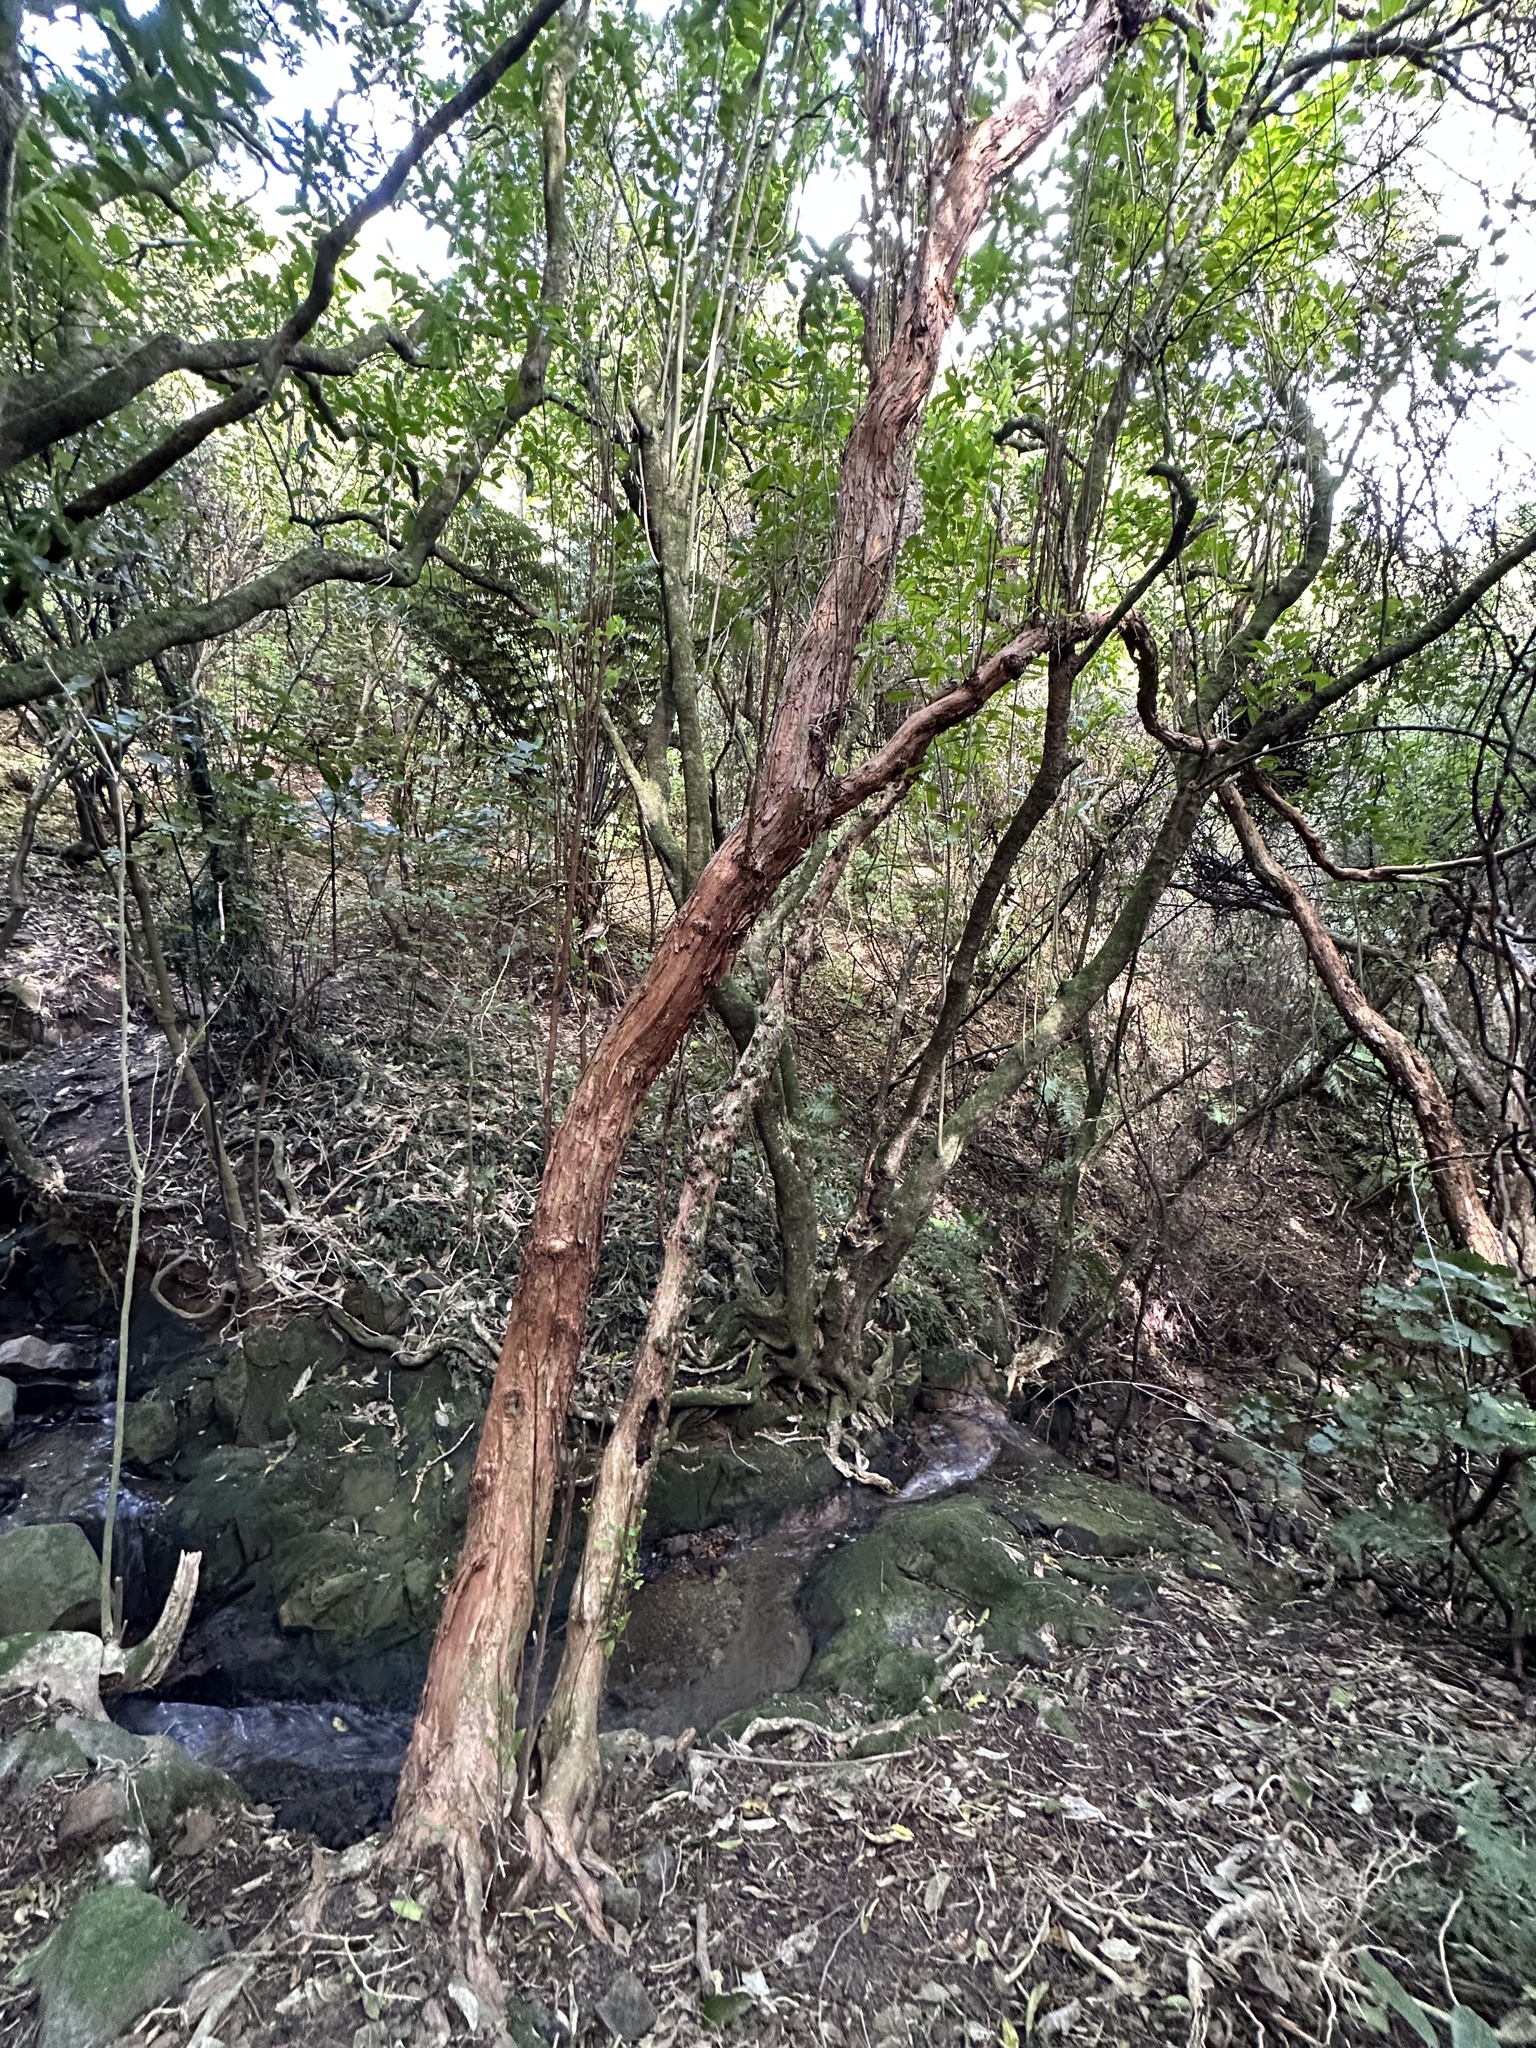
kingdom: Plantae
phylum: Tracheophyta
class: Magnoliopsida
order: Myrtales
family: Onagraceae
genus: Fuchsia
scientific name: Fuchsia excorticata
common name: Tree fuchsia
